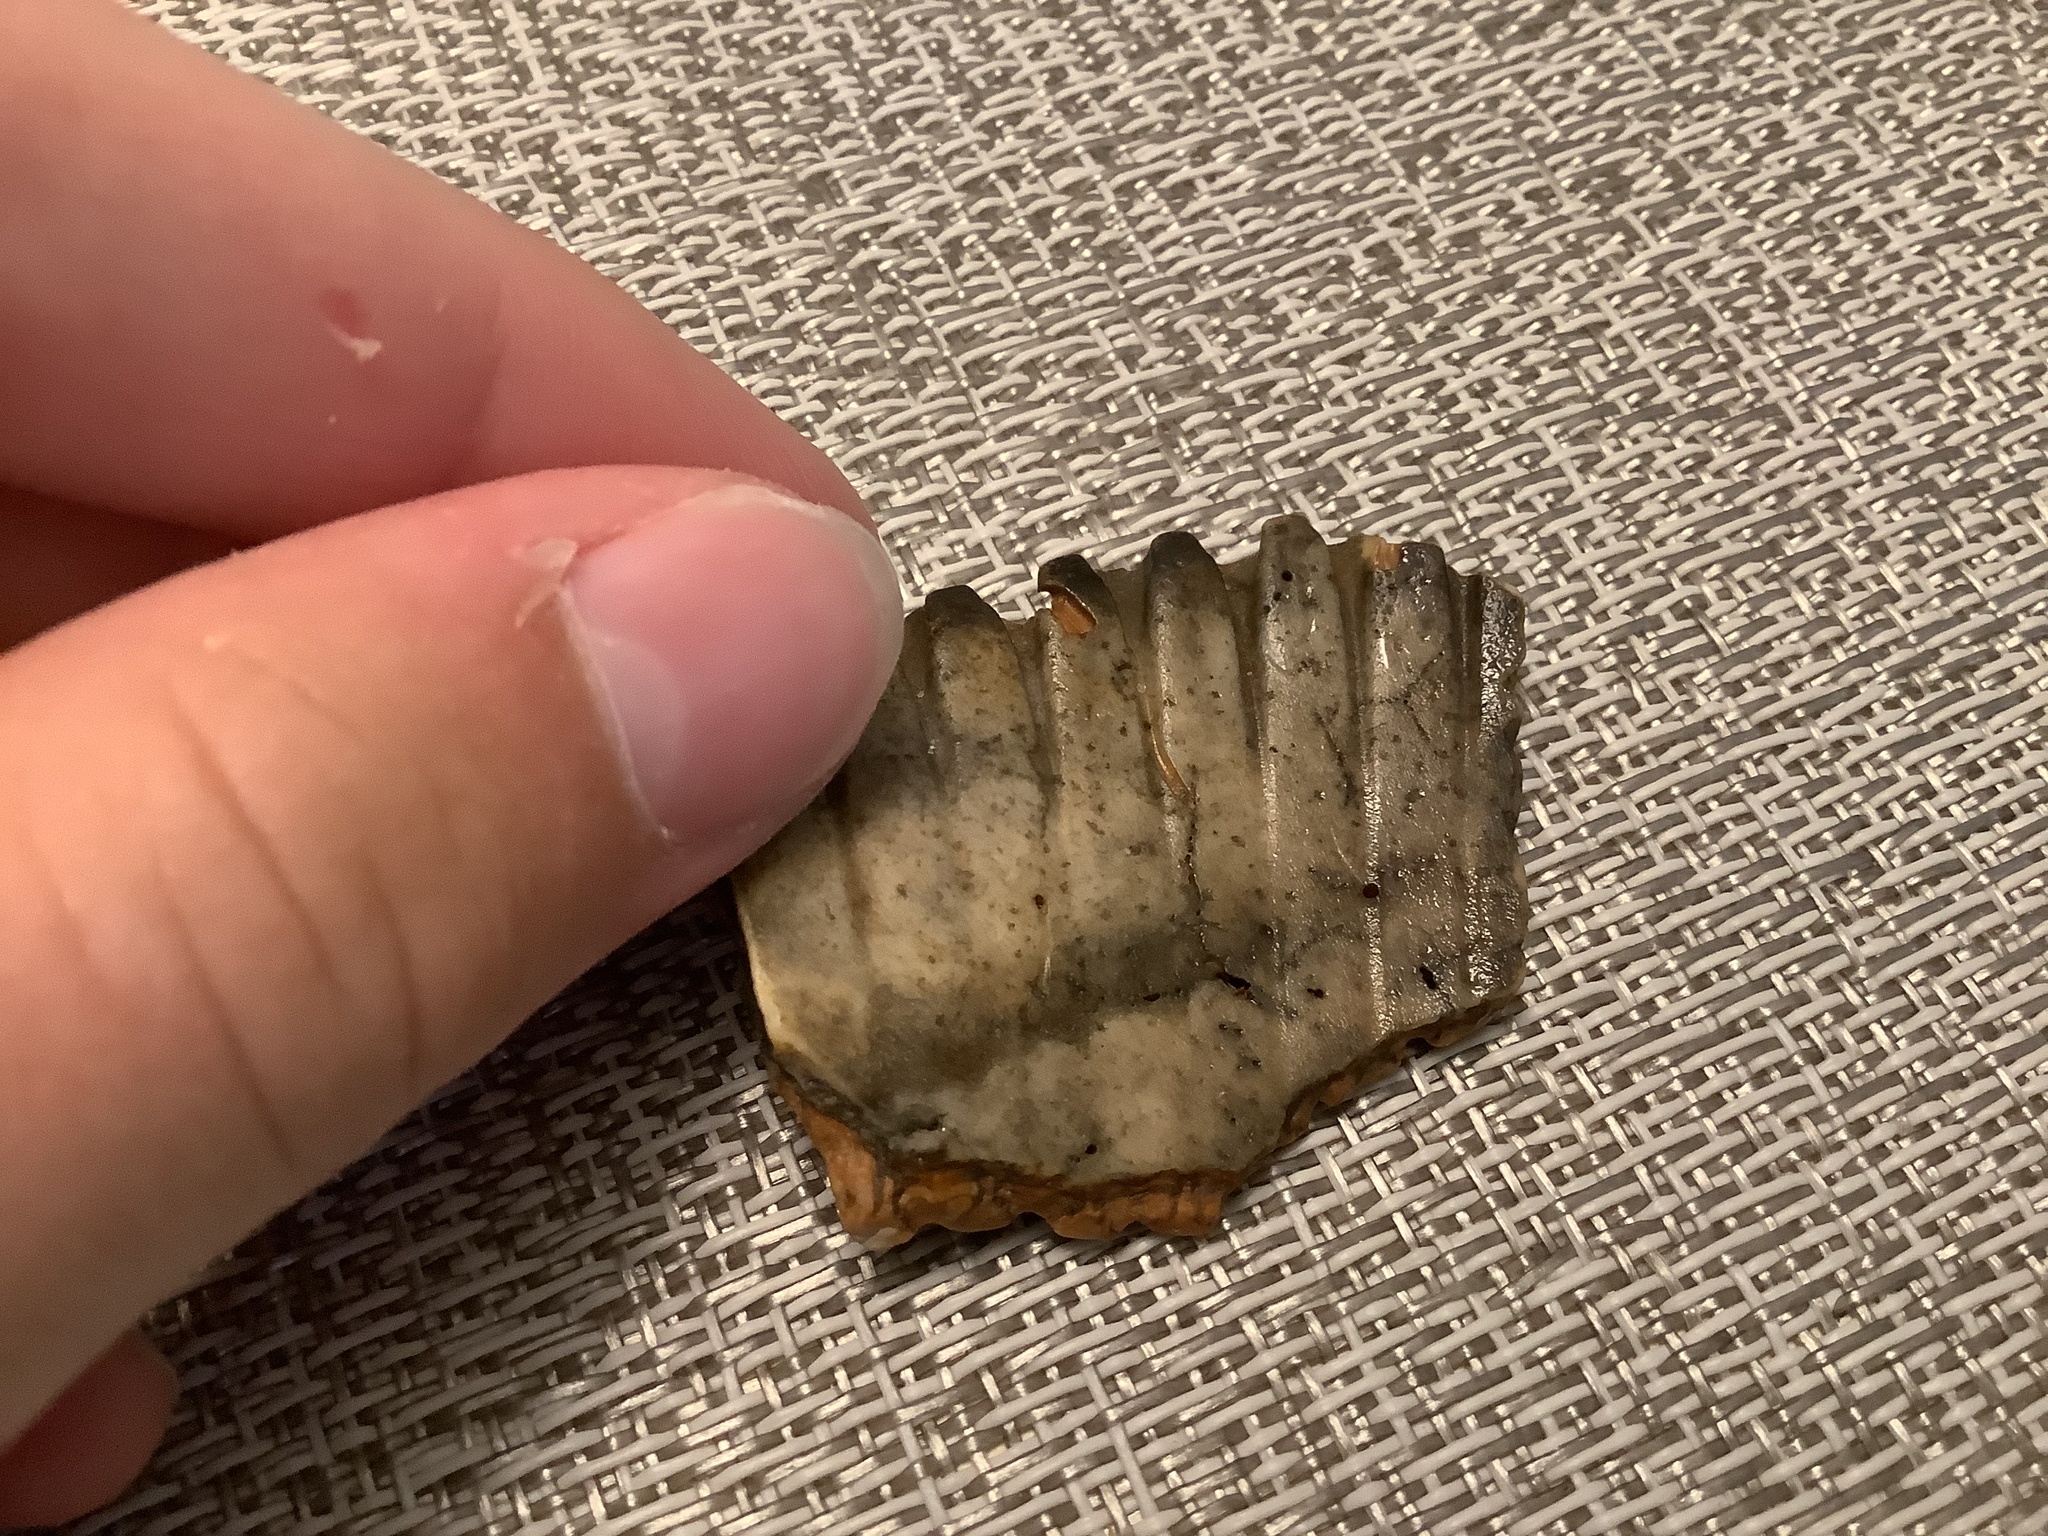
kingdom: Animalia
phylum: Mollusca
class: Bivalvia
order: Cardiida
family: Cardiidae
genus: Dinocardium
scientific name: Dinocardium robustum
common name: Atlantic giant cockle
